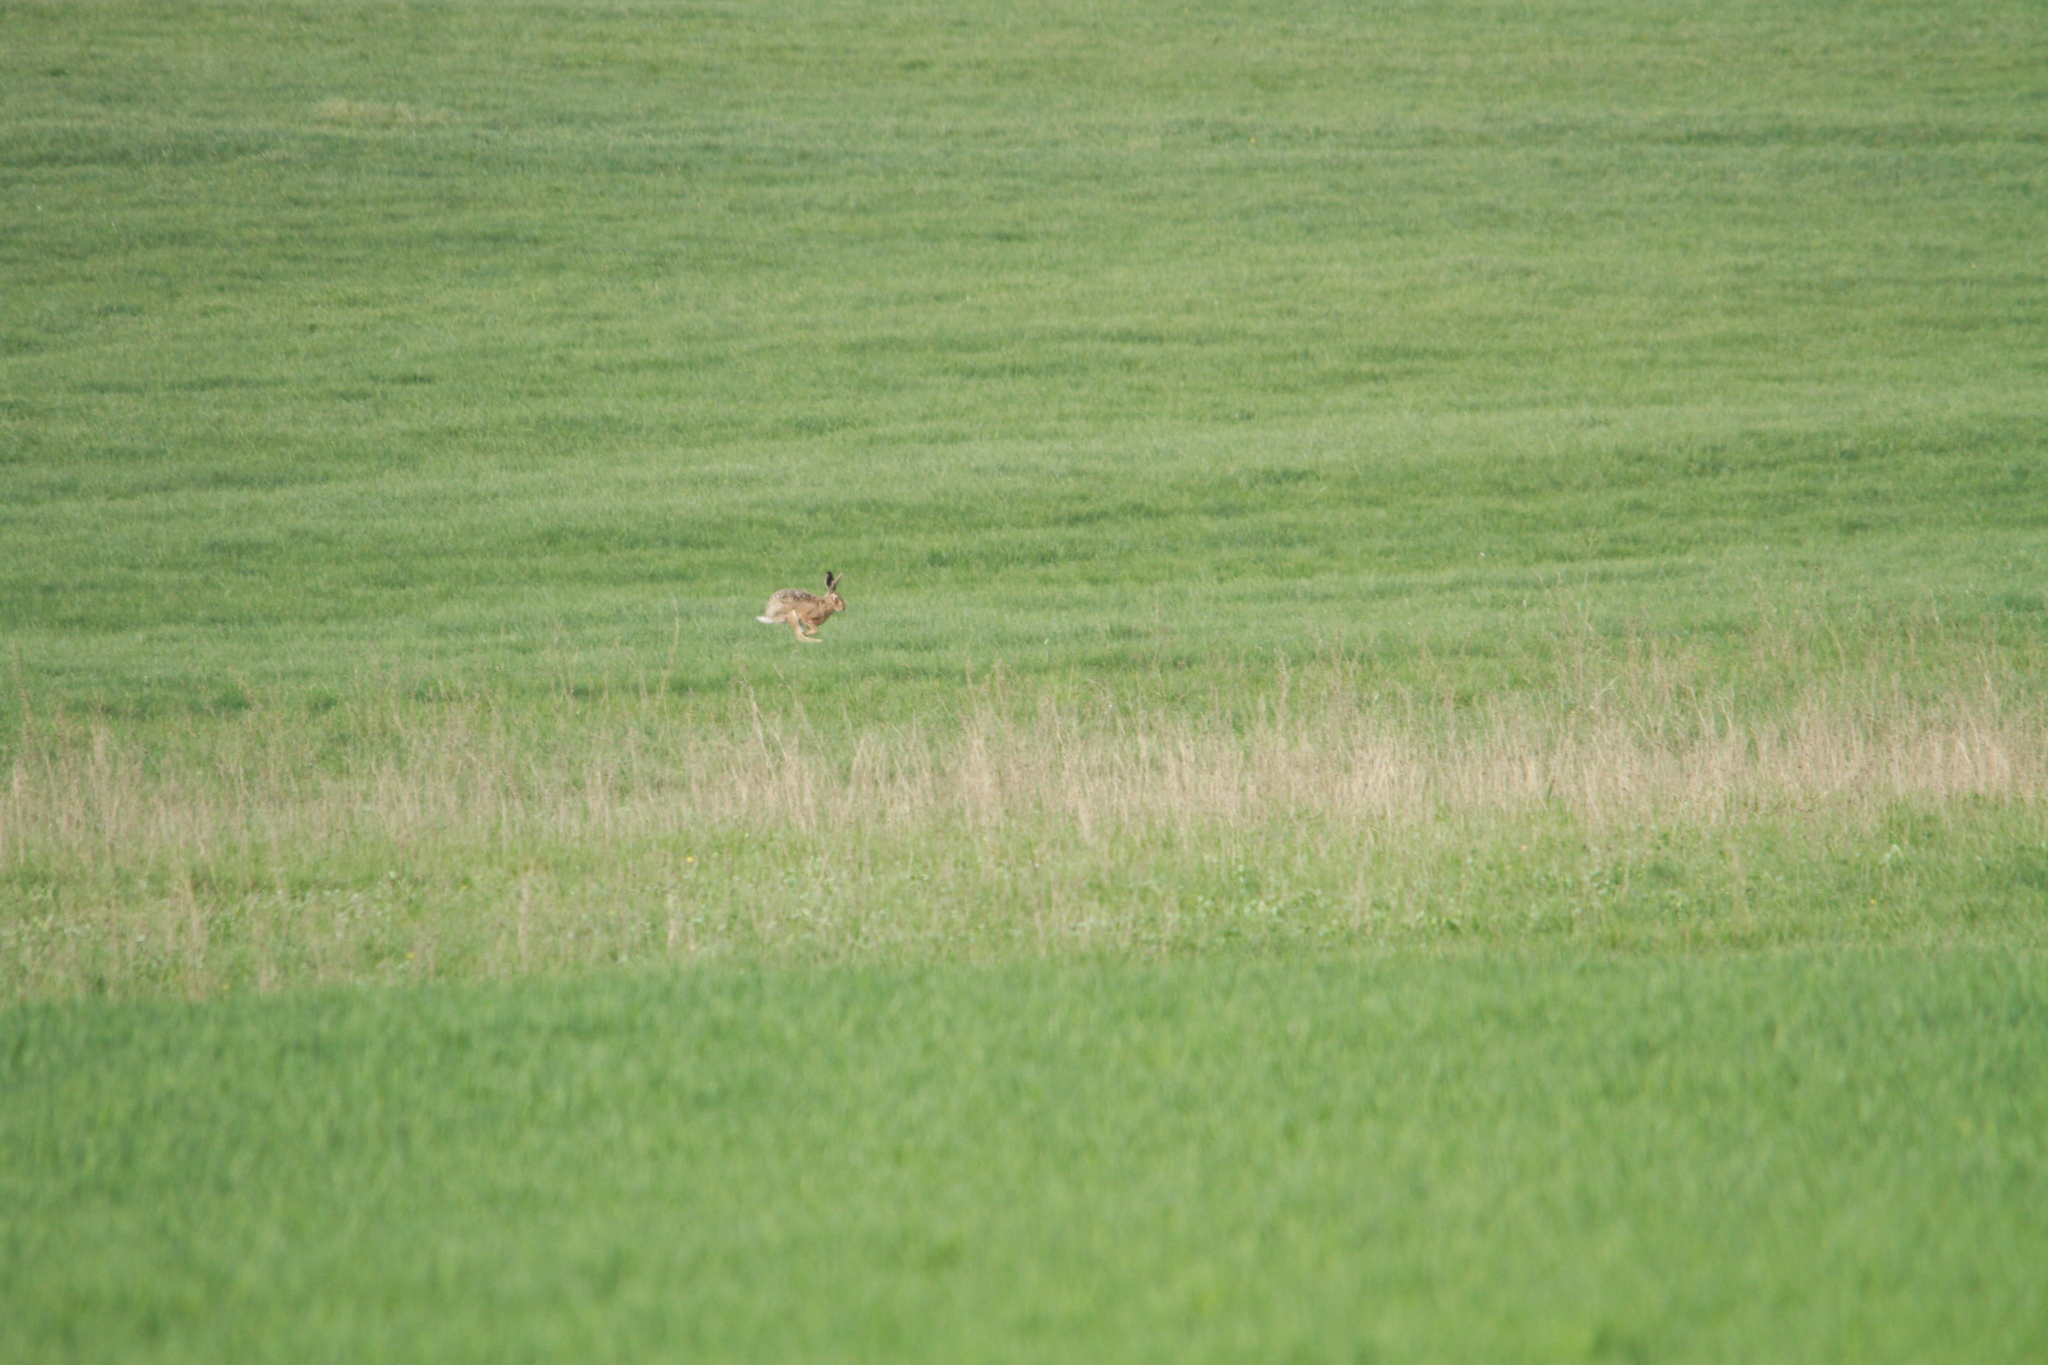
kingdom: Animalia
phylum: Chordata
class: Mammalia
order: Lagomorpha
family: Leporidae
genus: Lepus
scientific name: Lepus europaeus
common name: European hare
